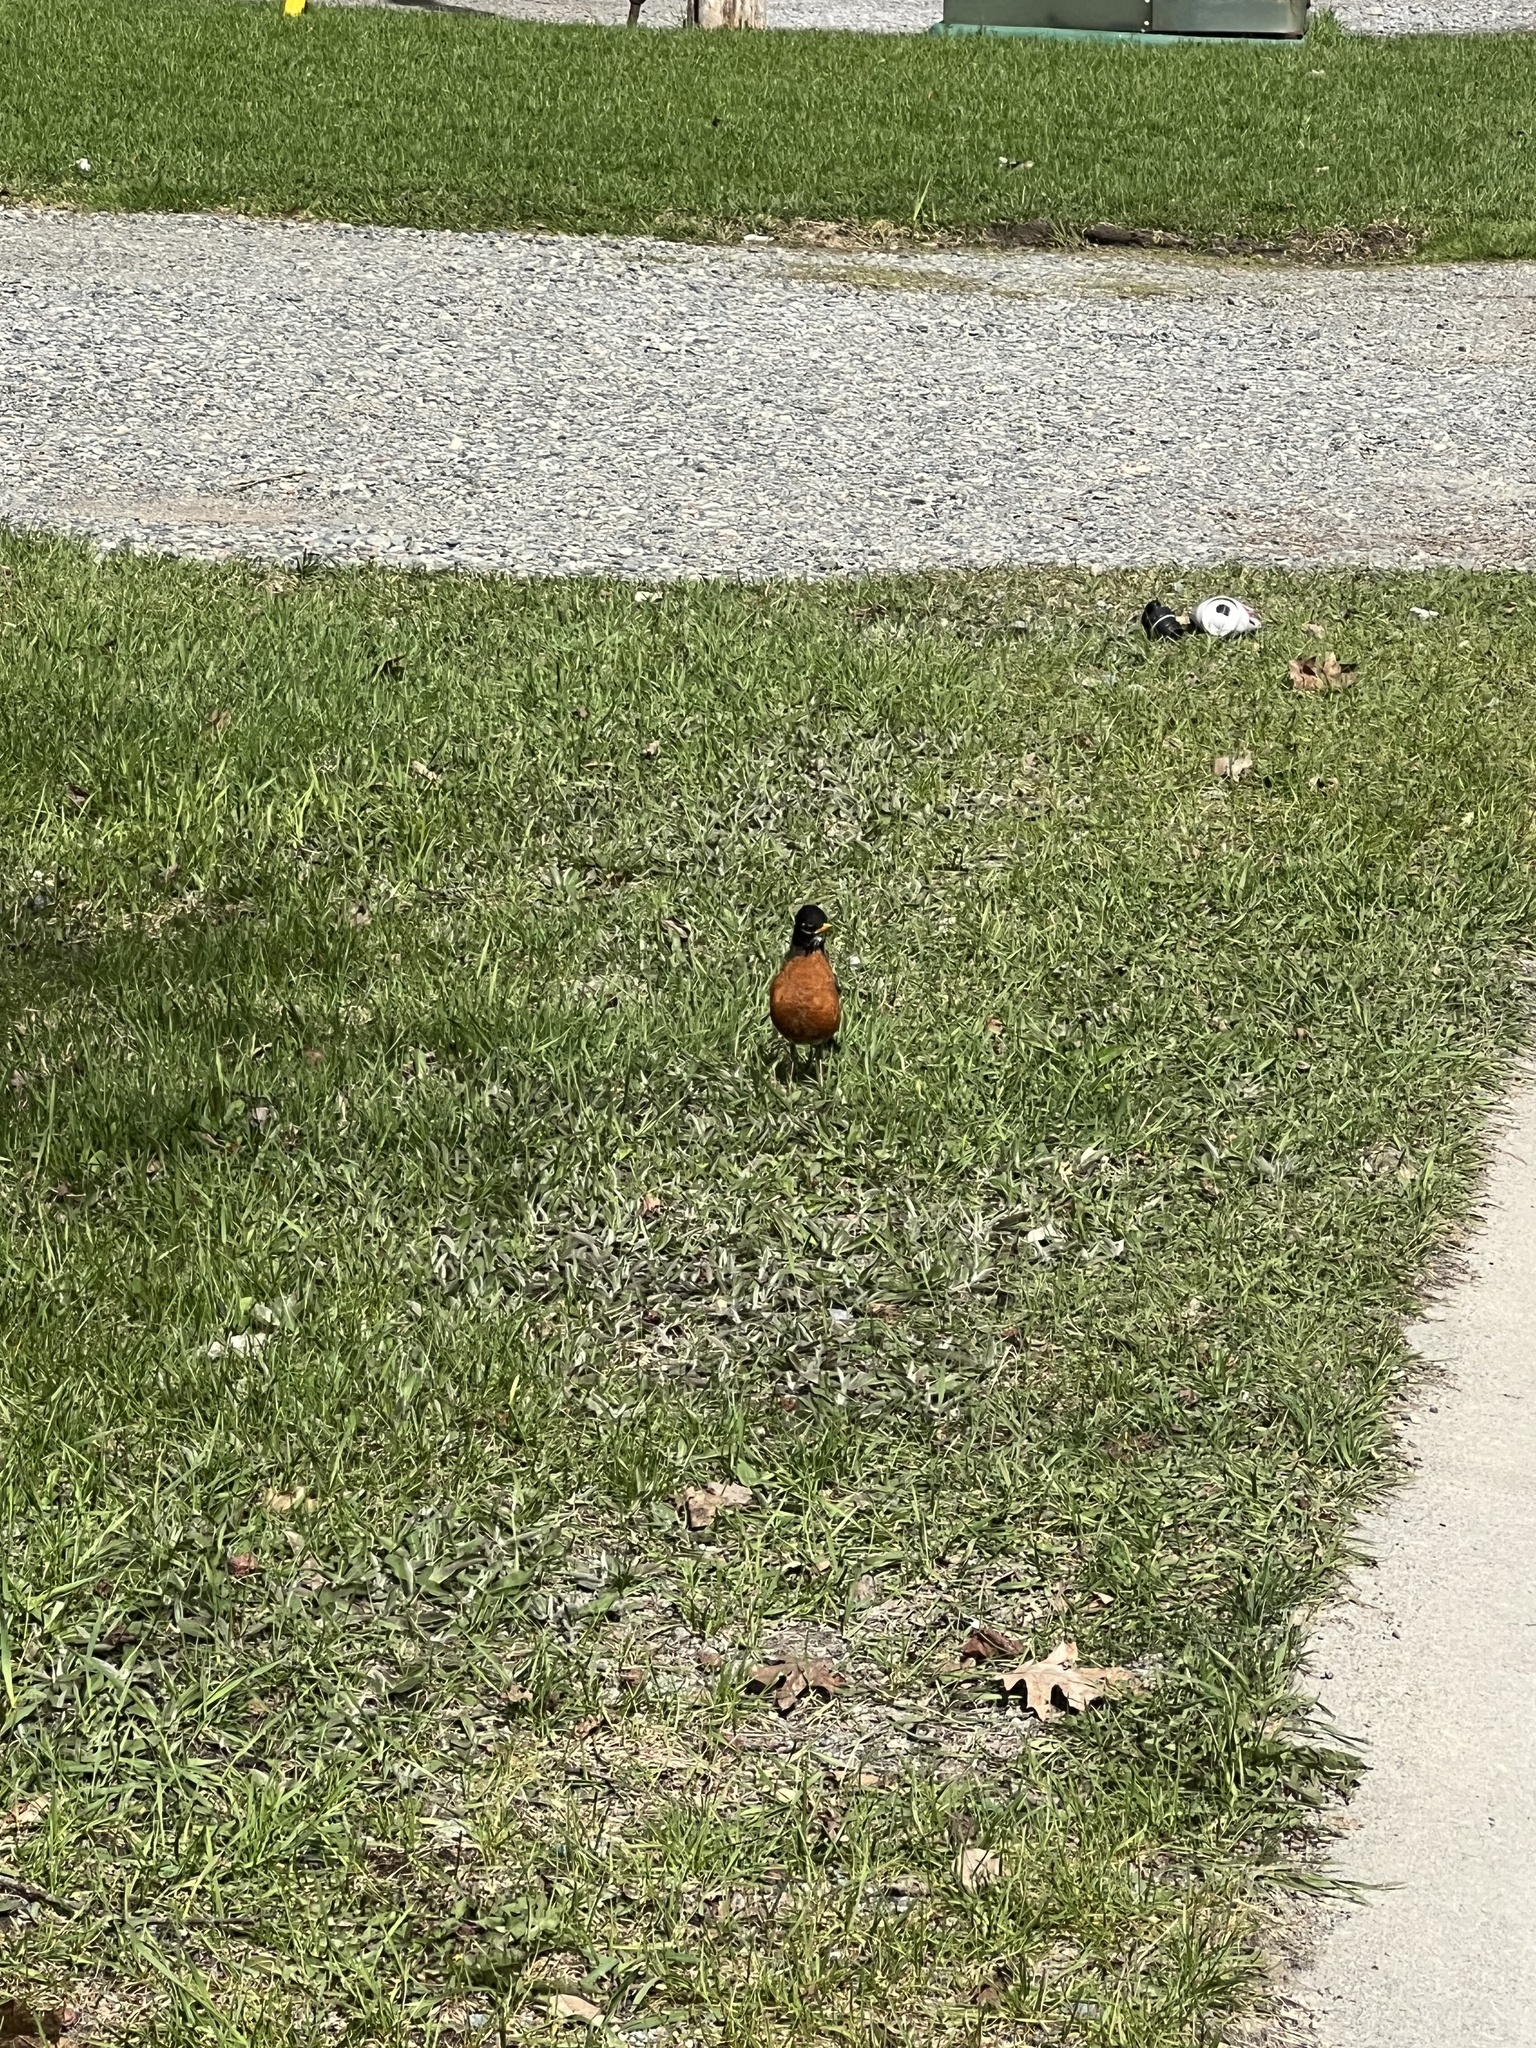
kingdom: Animalia
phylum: Chordata
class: Aves
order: Passeriformes
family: Turdidae
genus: Turdus
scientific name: Turdus migratorius
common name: American robin
